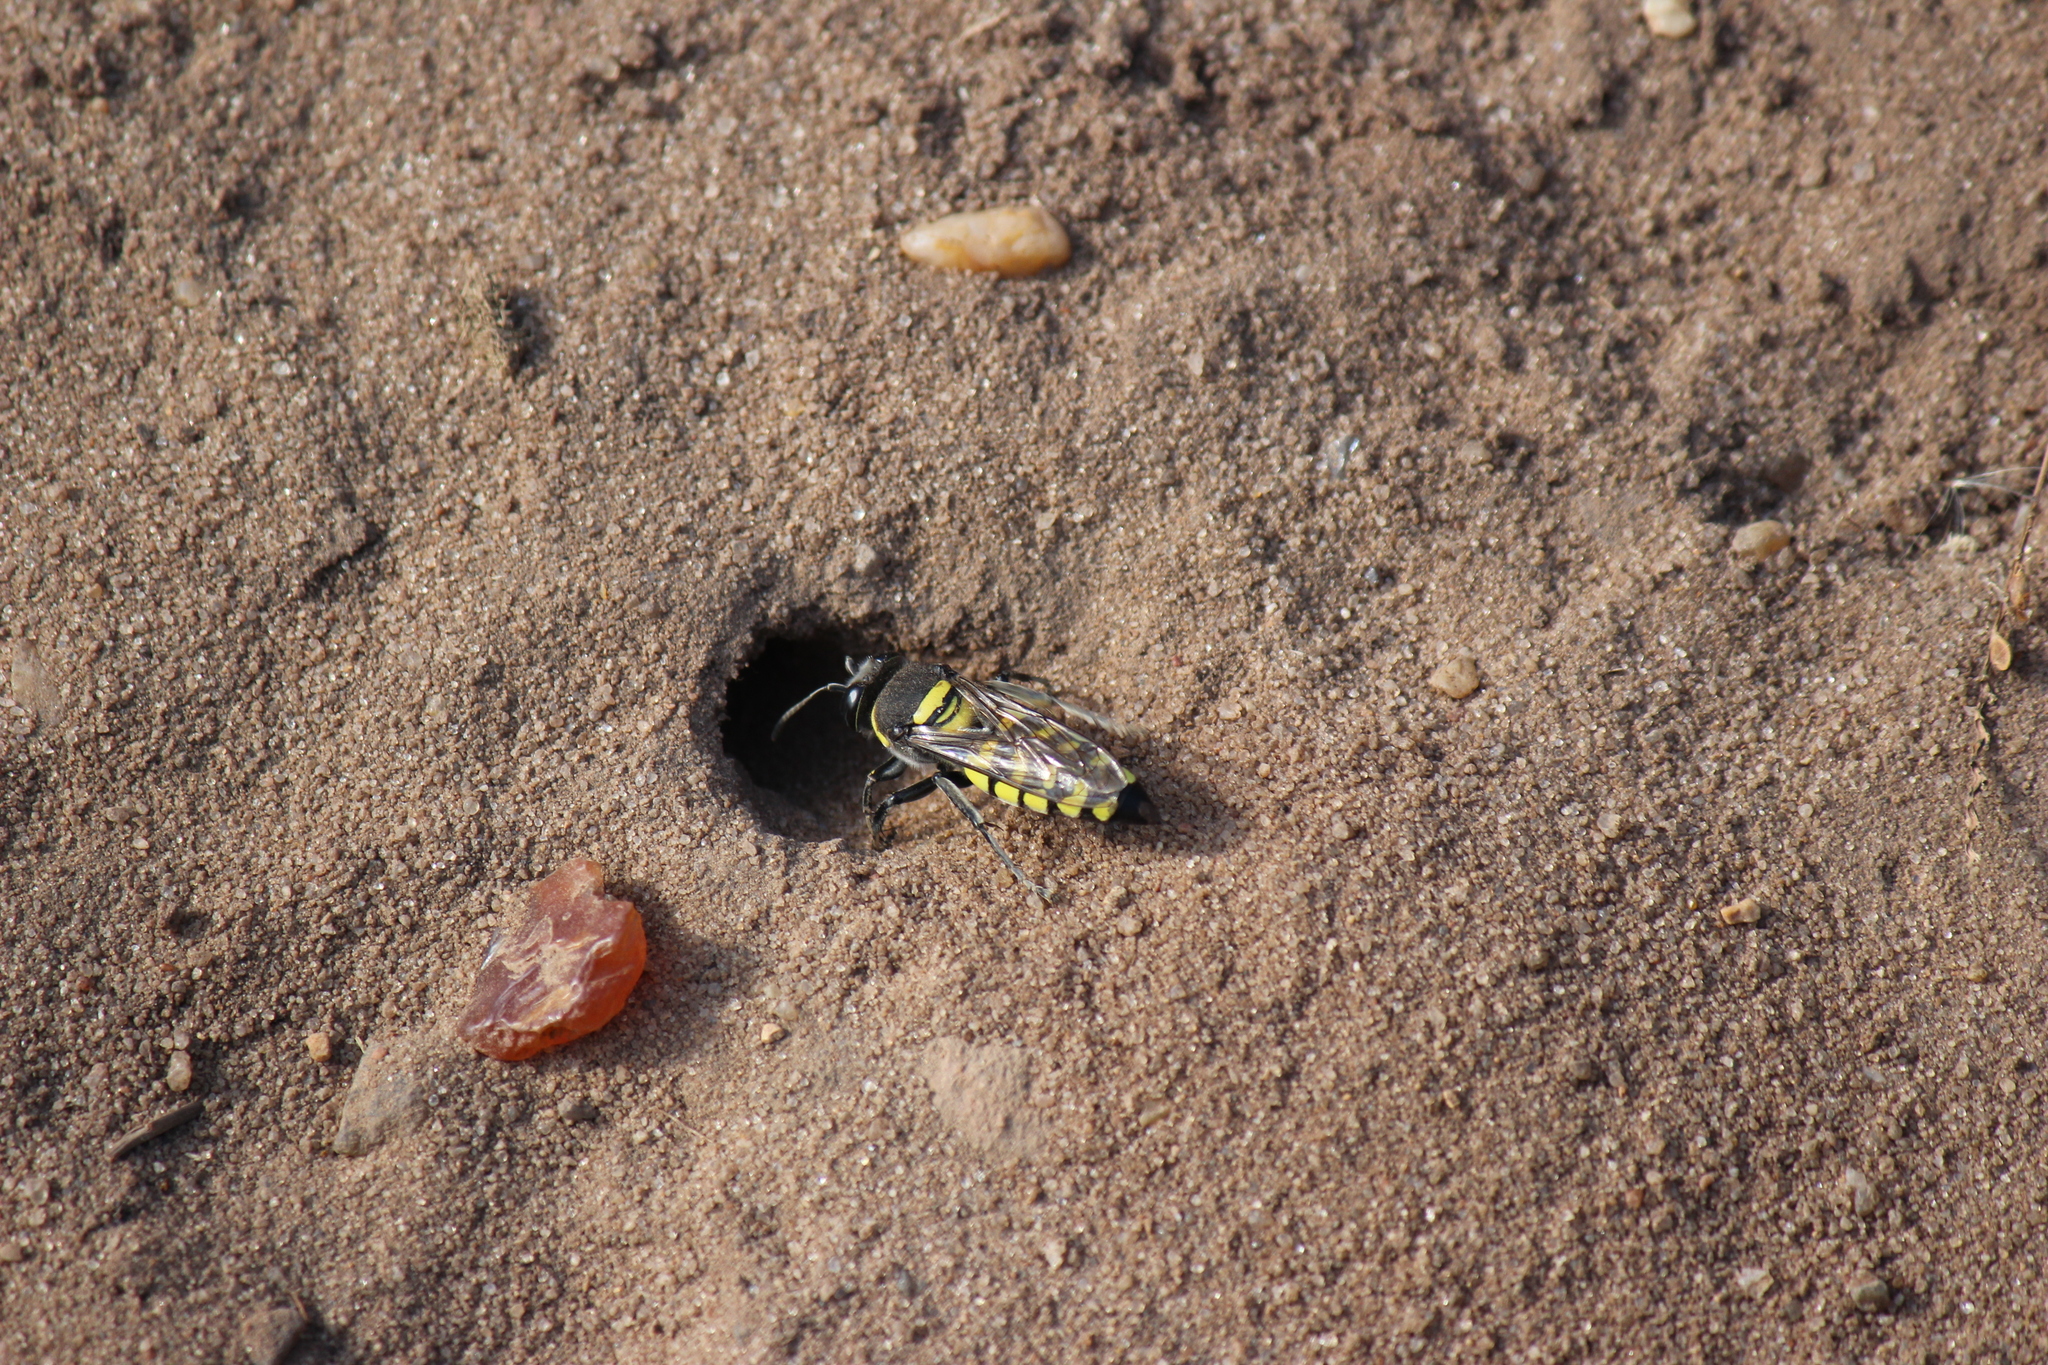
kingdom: Animalia
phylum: Arthropoda
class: Insecta
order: Hymenoptera
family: Crabronidae
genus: Stictia
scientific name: Stictia arcuata
